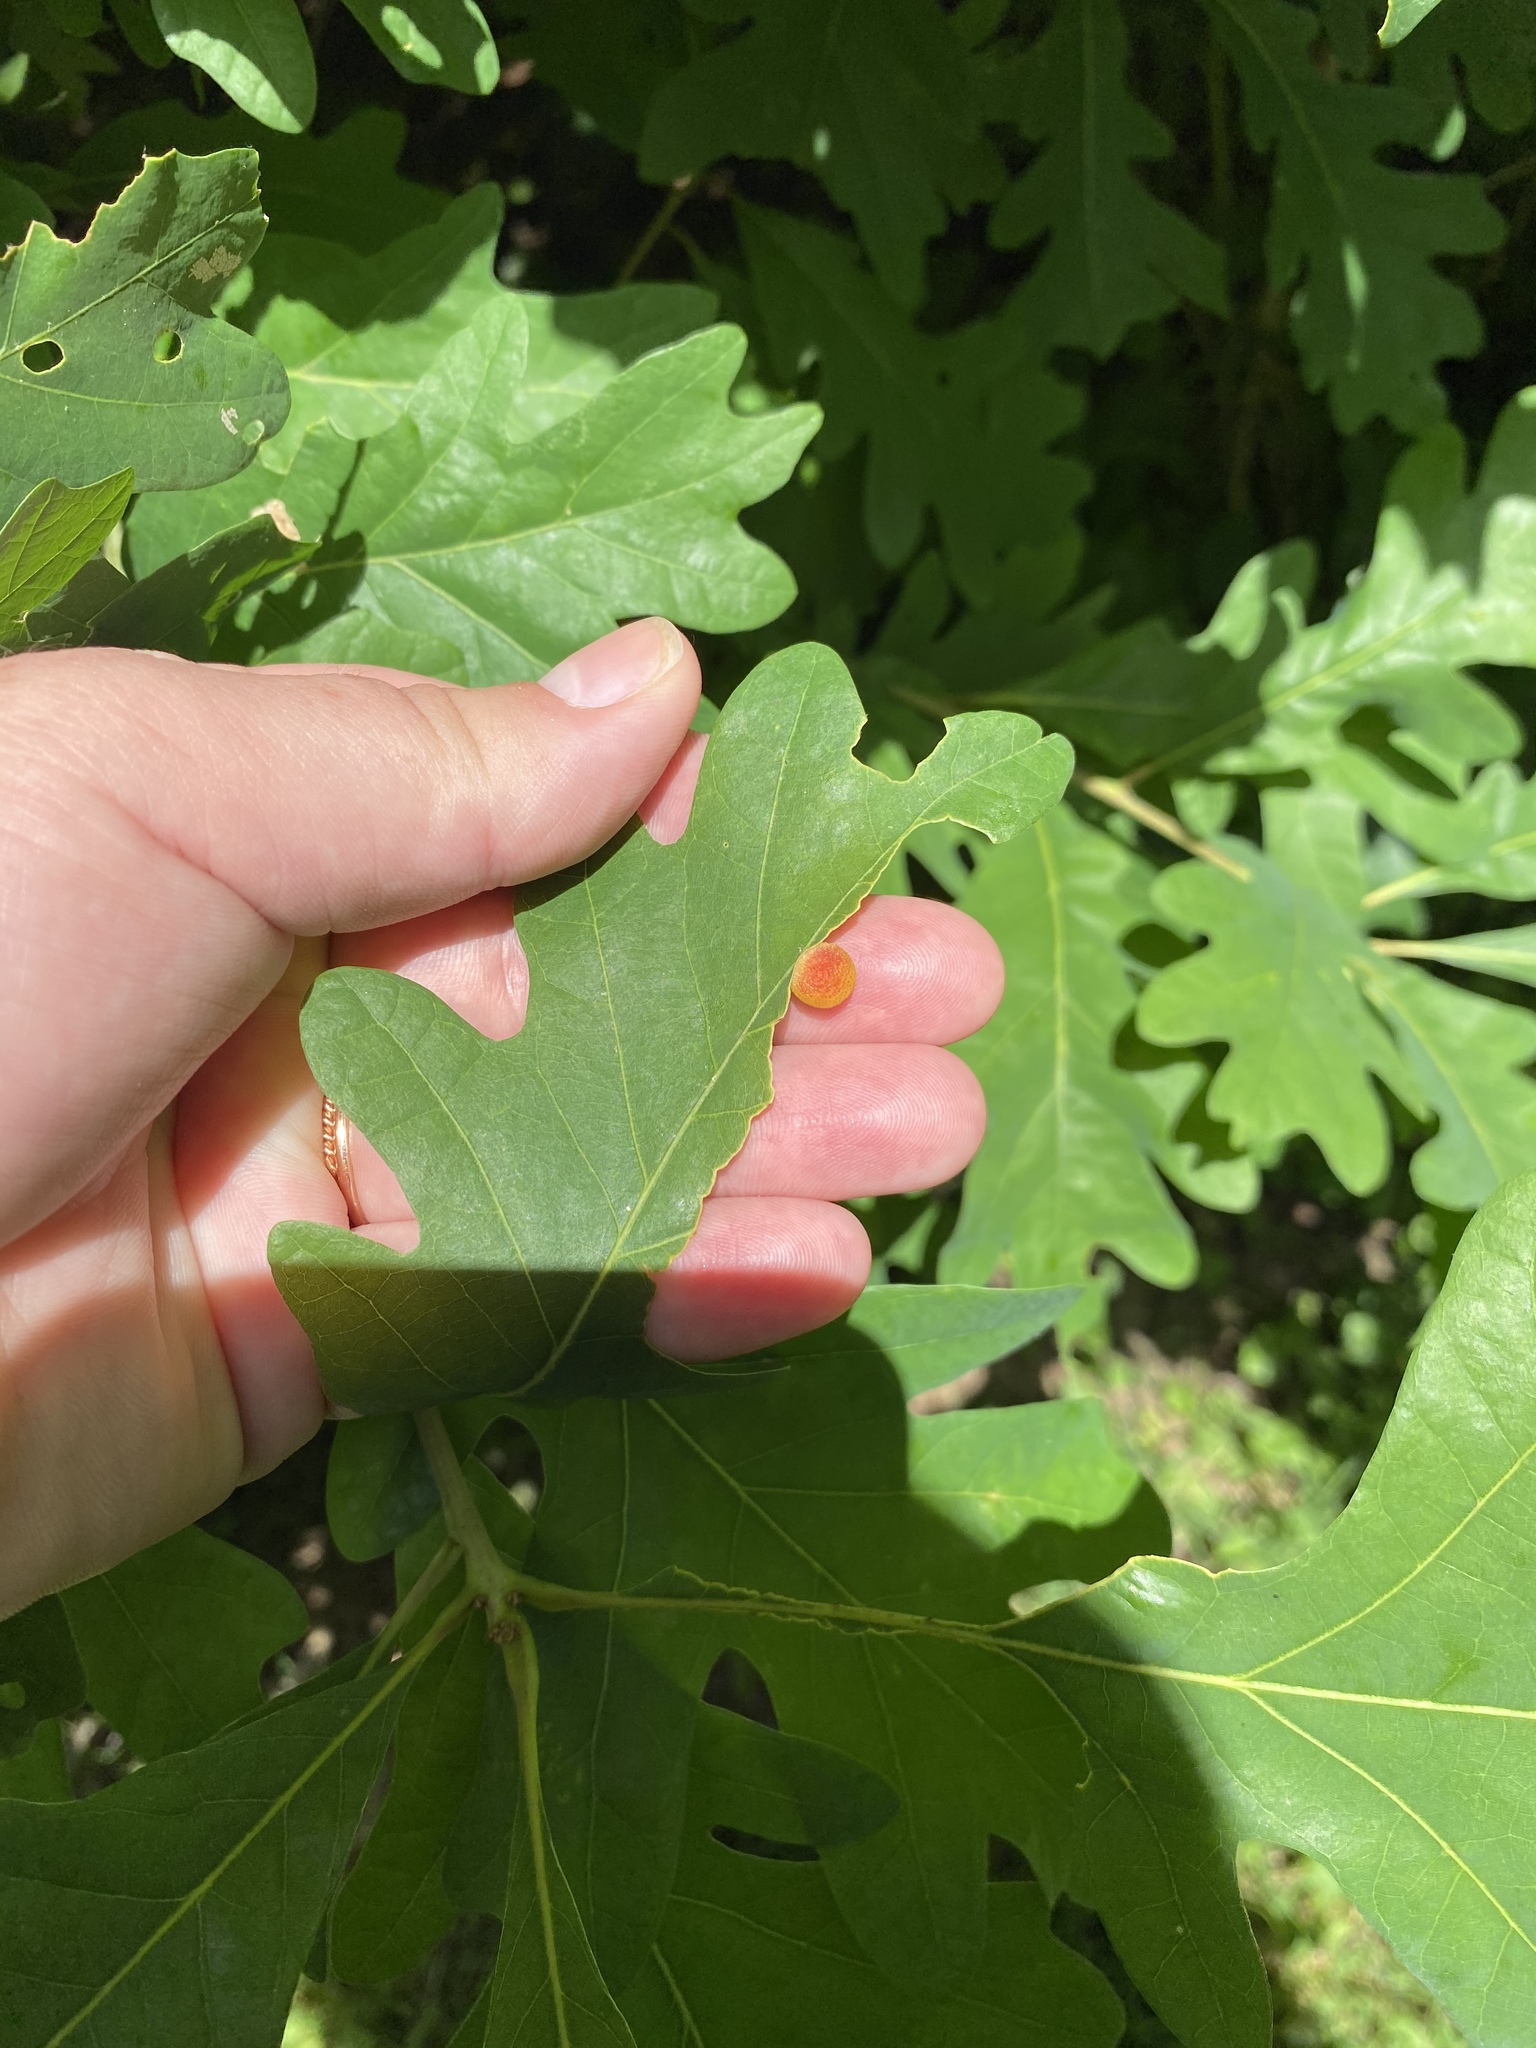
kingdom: Animalia
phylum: Arthropoda
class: Insecta
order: Hymenoptera
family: Cynipidae
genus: Acraspis
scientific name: Acraspis
